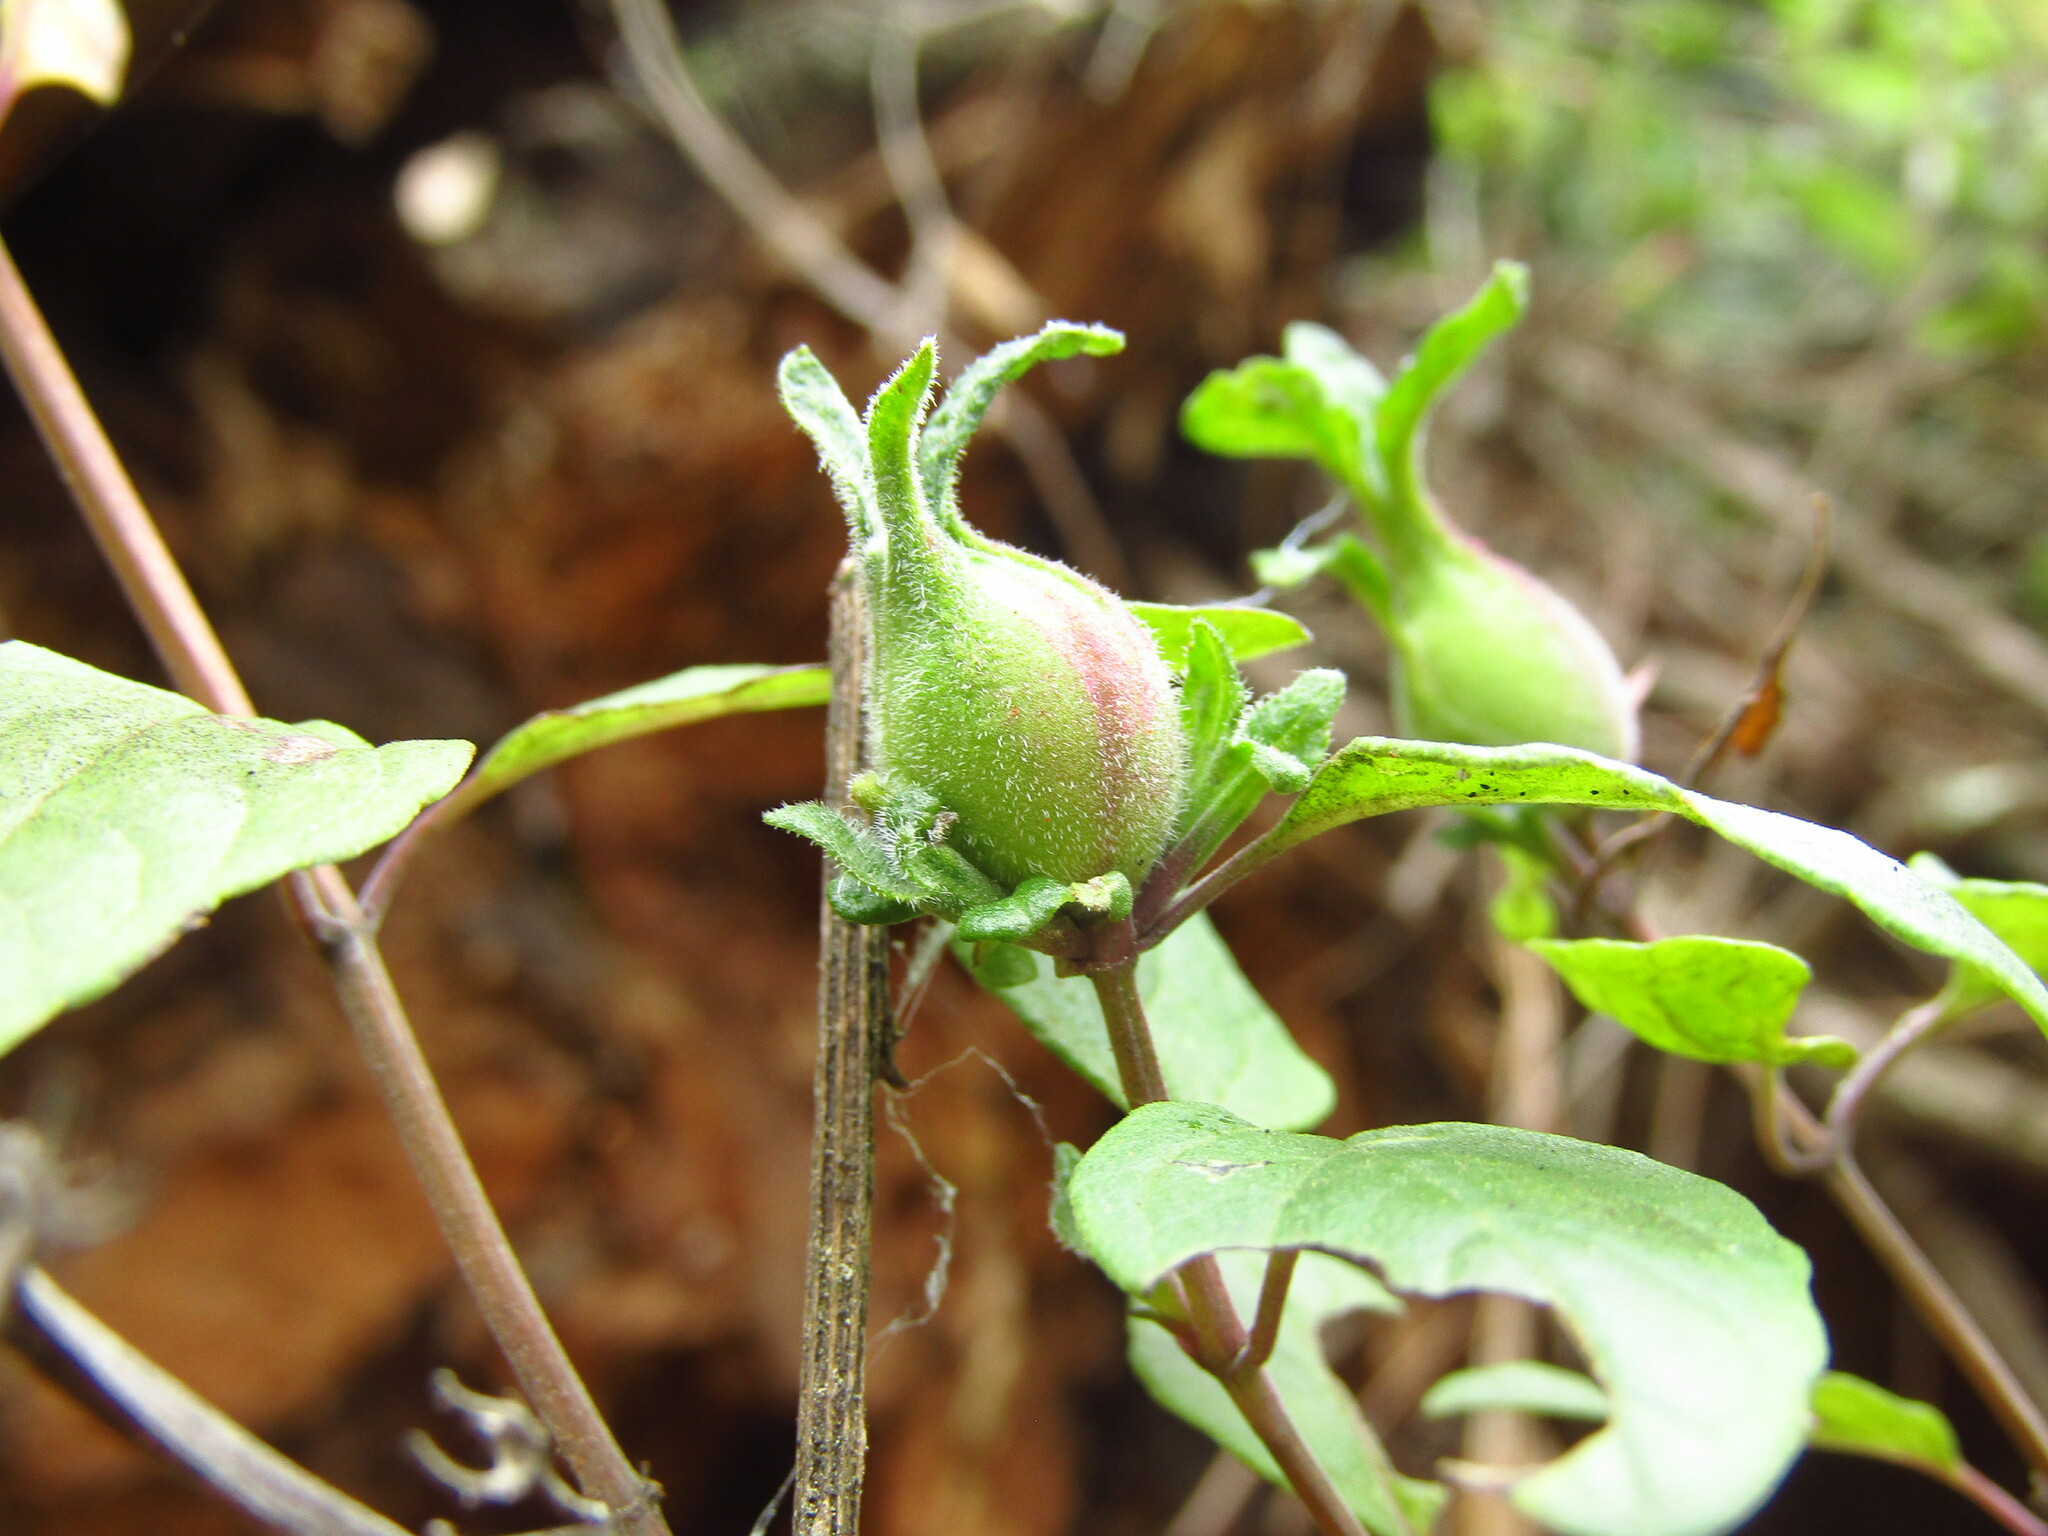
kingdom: Plantae
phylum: Tracheophyta
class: Magnoliopsida
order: Lamiales
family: Lamiaceae
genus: Clinopodium
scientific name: Clinopodium multiflorum
